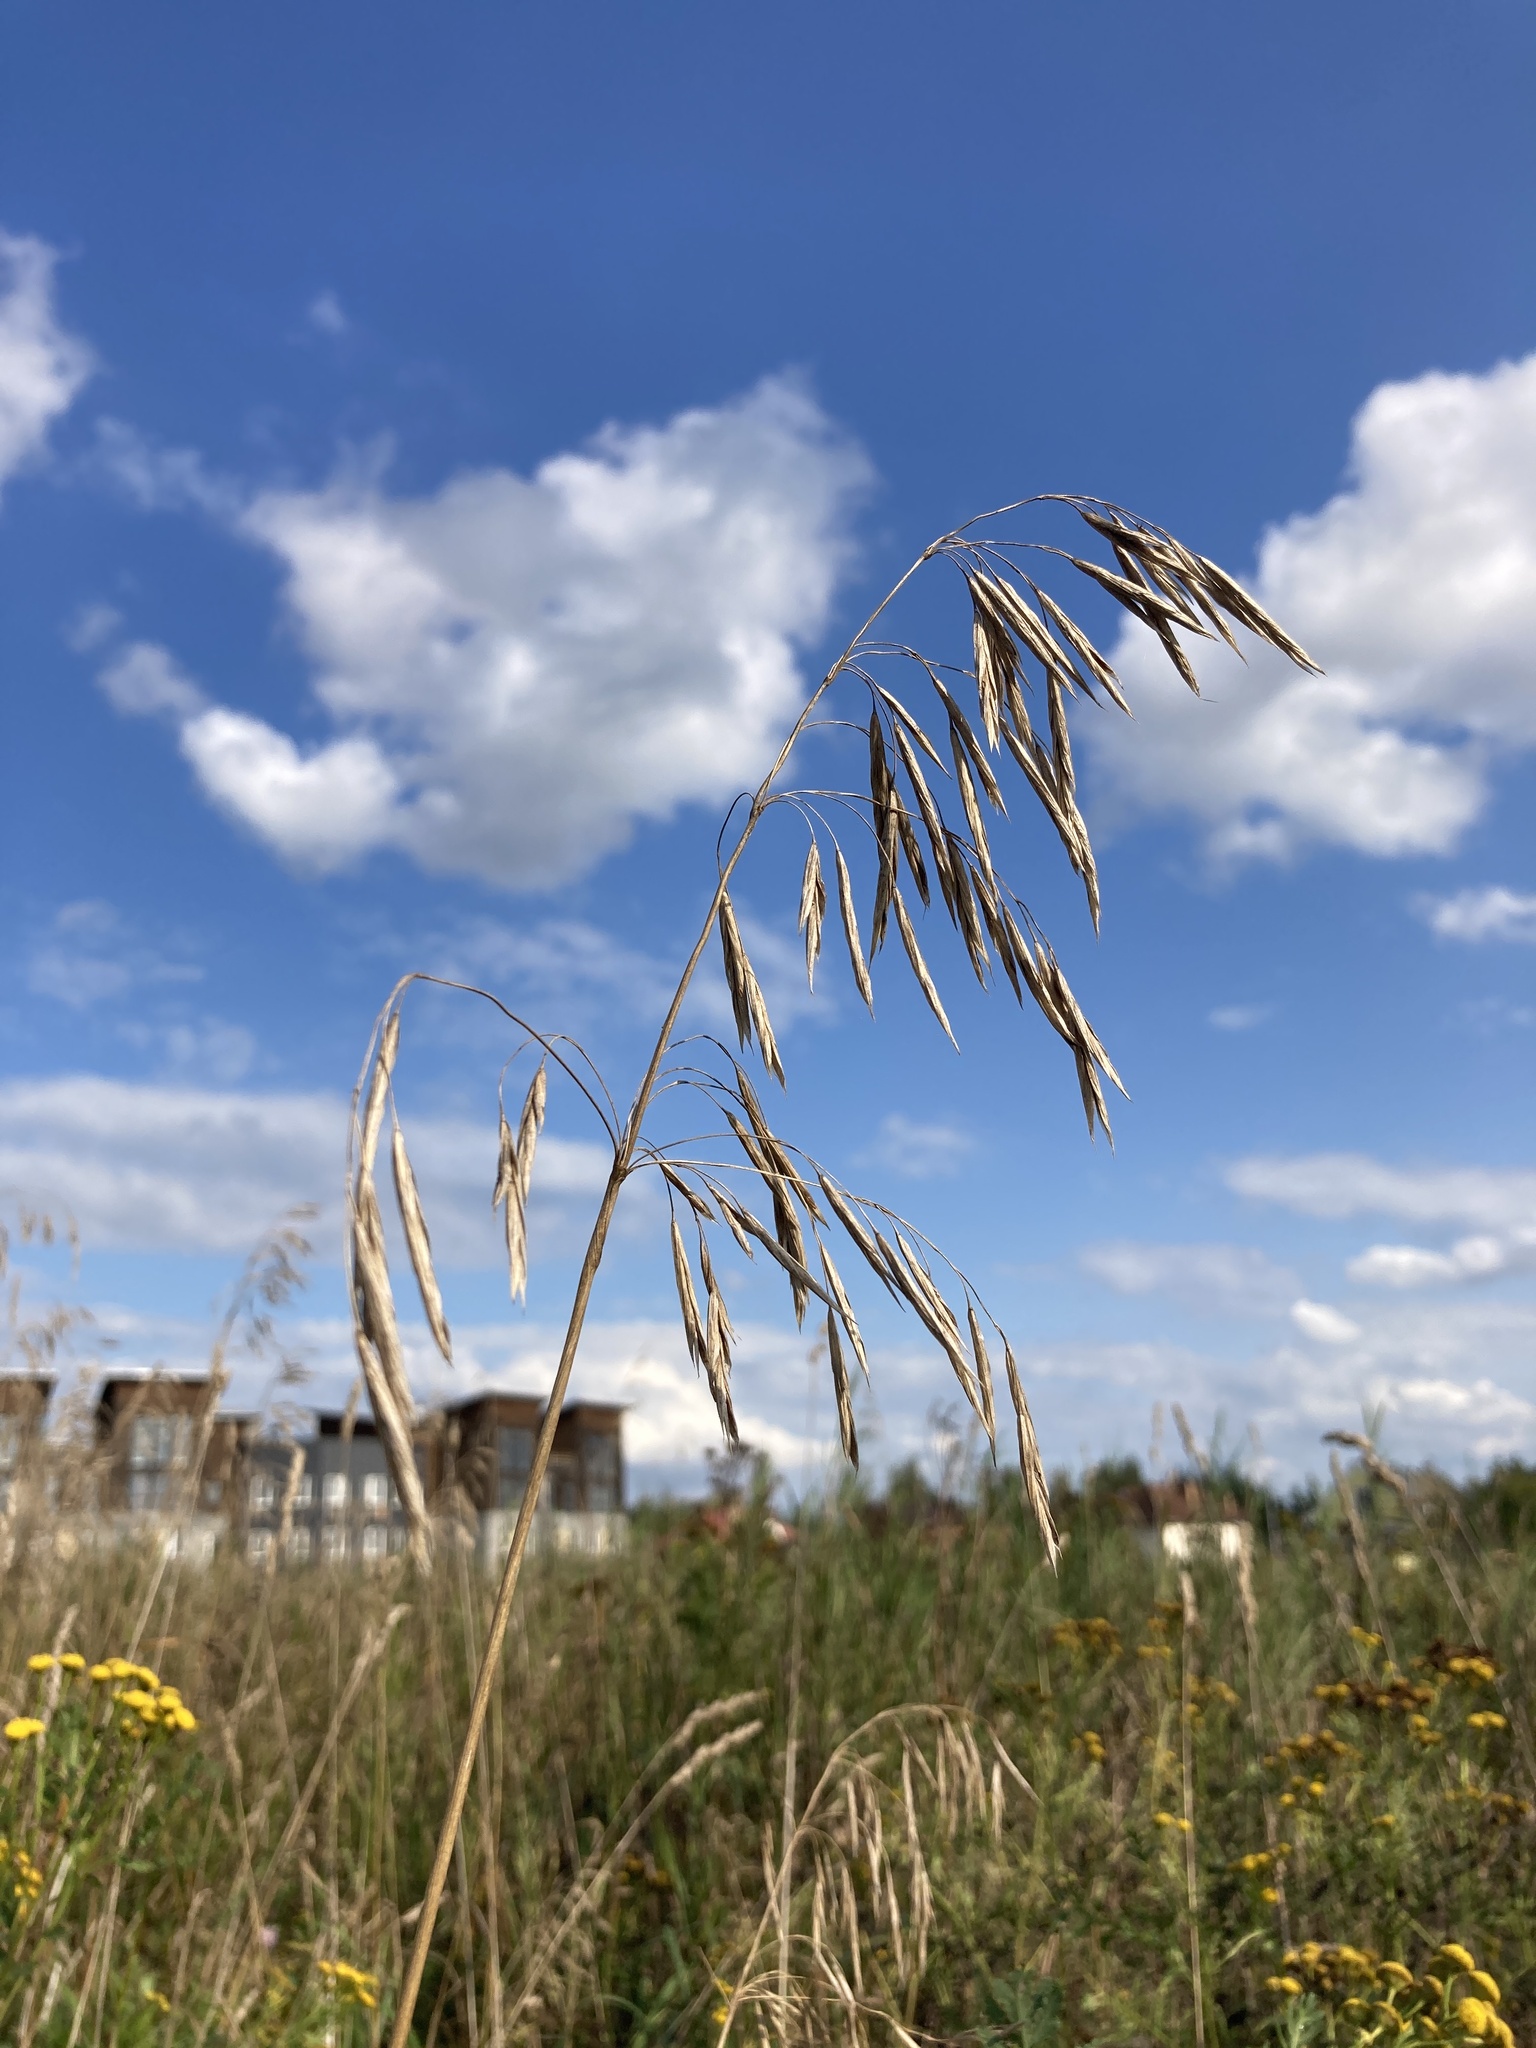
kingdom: Plantae
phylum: Tracheophyta
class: Liliopsida
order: Poales
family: Poaceae
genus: Bromus
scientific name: Bromus inermis
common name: Smooth brome
